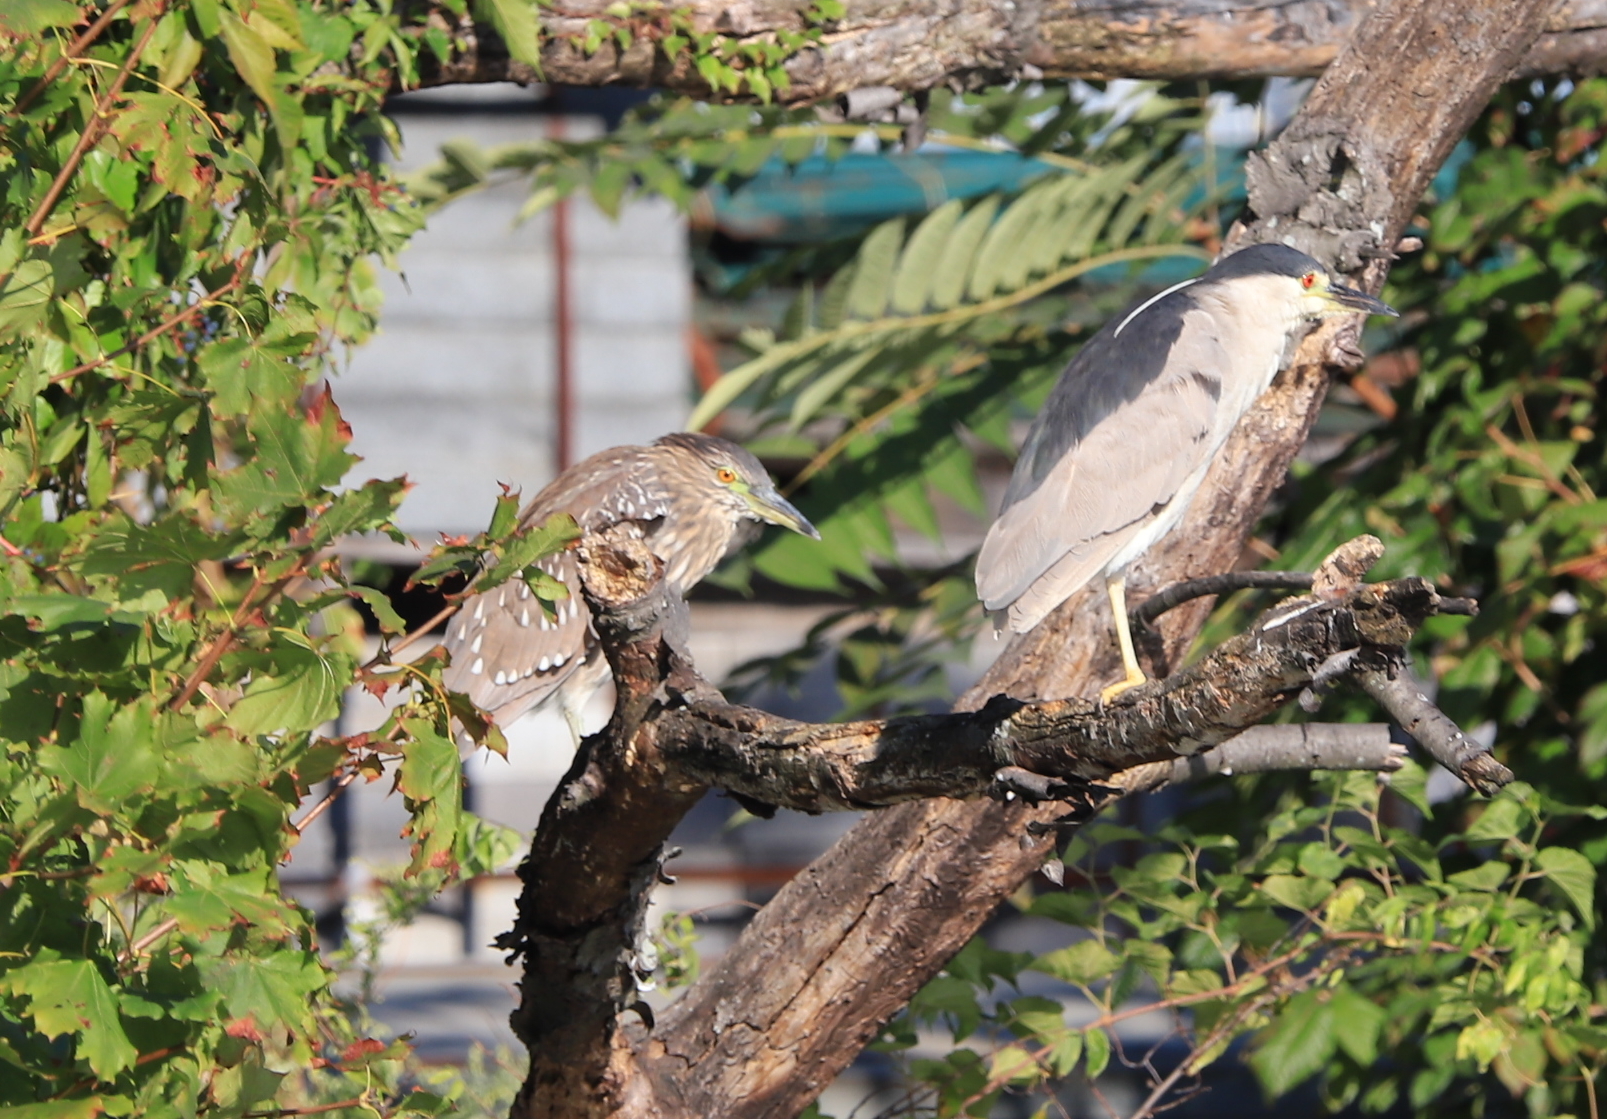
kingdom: Animalia
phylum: Chordata
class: Aves
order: Pelecaniformes
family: Ardeidae
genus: Nycticorax
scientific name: Nycticorax nycticorax
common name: Black-crowned night heron
